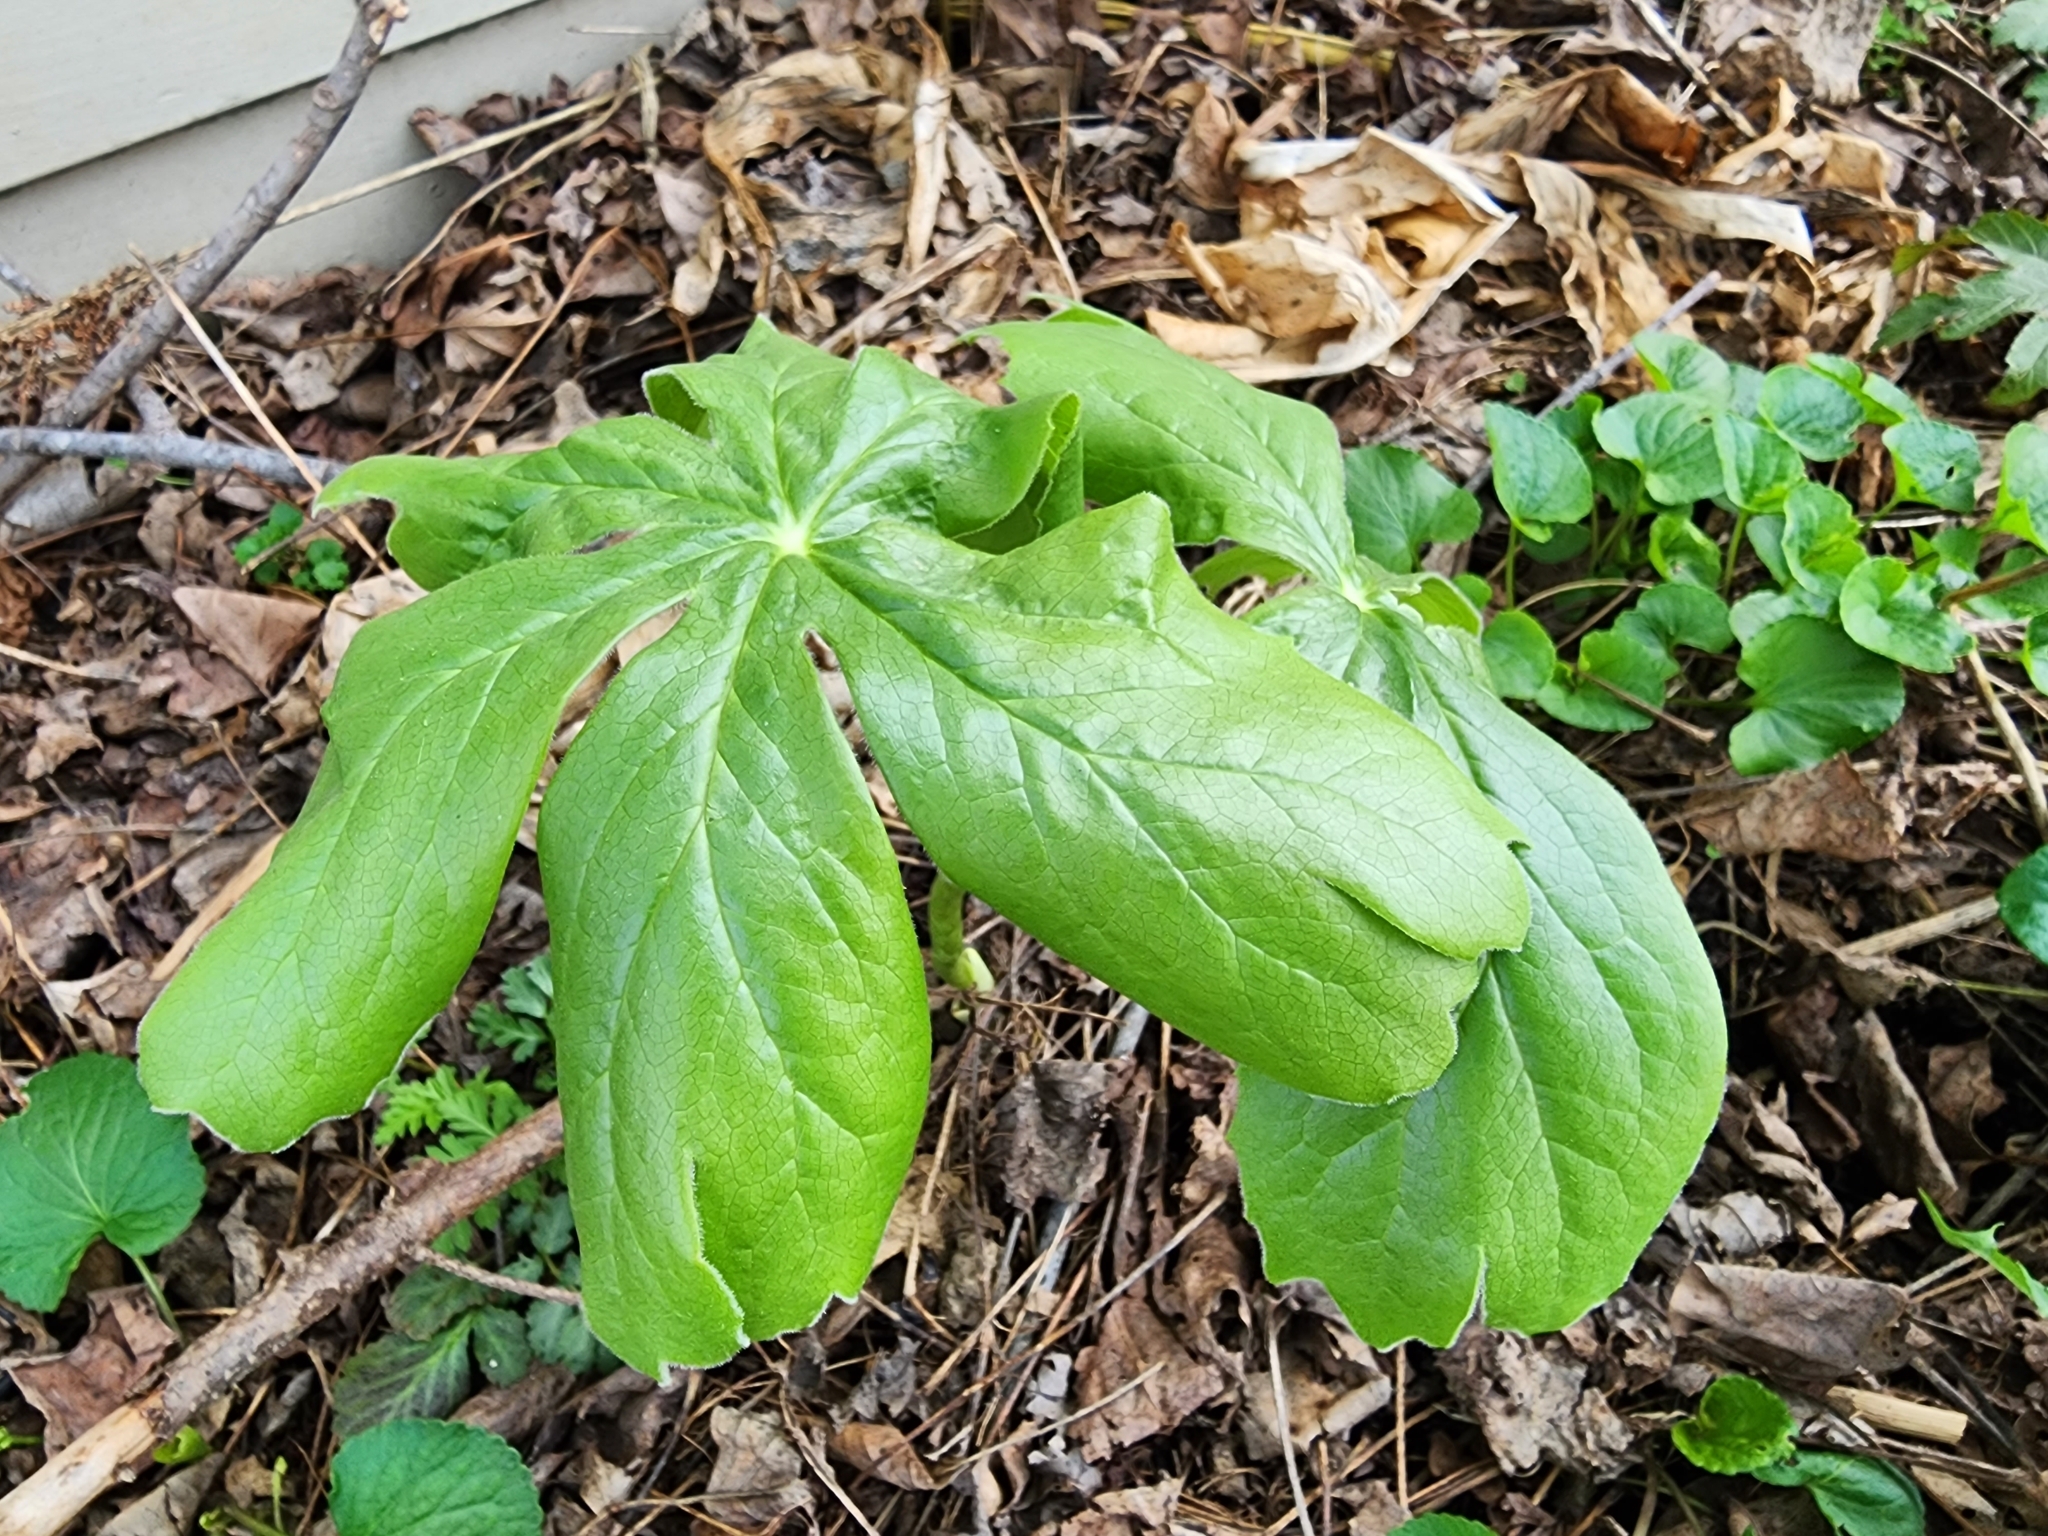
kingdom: Plantae
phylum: Tracheophyta
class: Magnoliopsida
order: Ranunculales
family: Berberidaceae
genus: Podophyllum
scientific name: Podophyllum peltatum
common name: Wild mandrake
